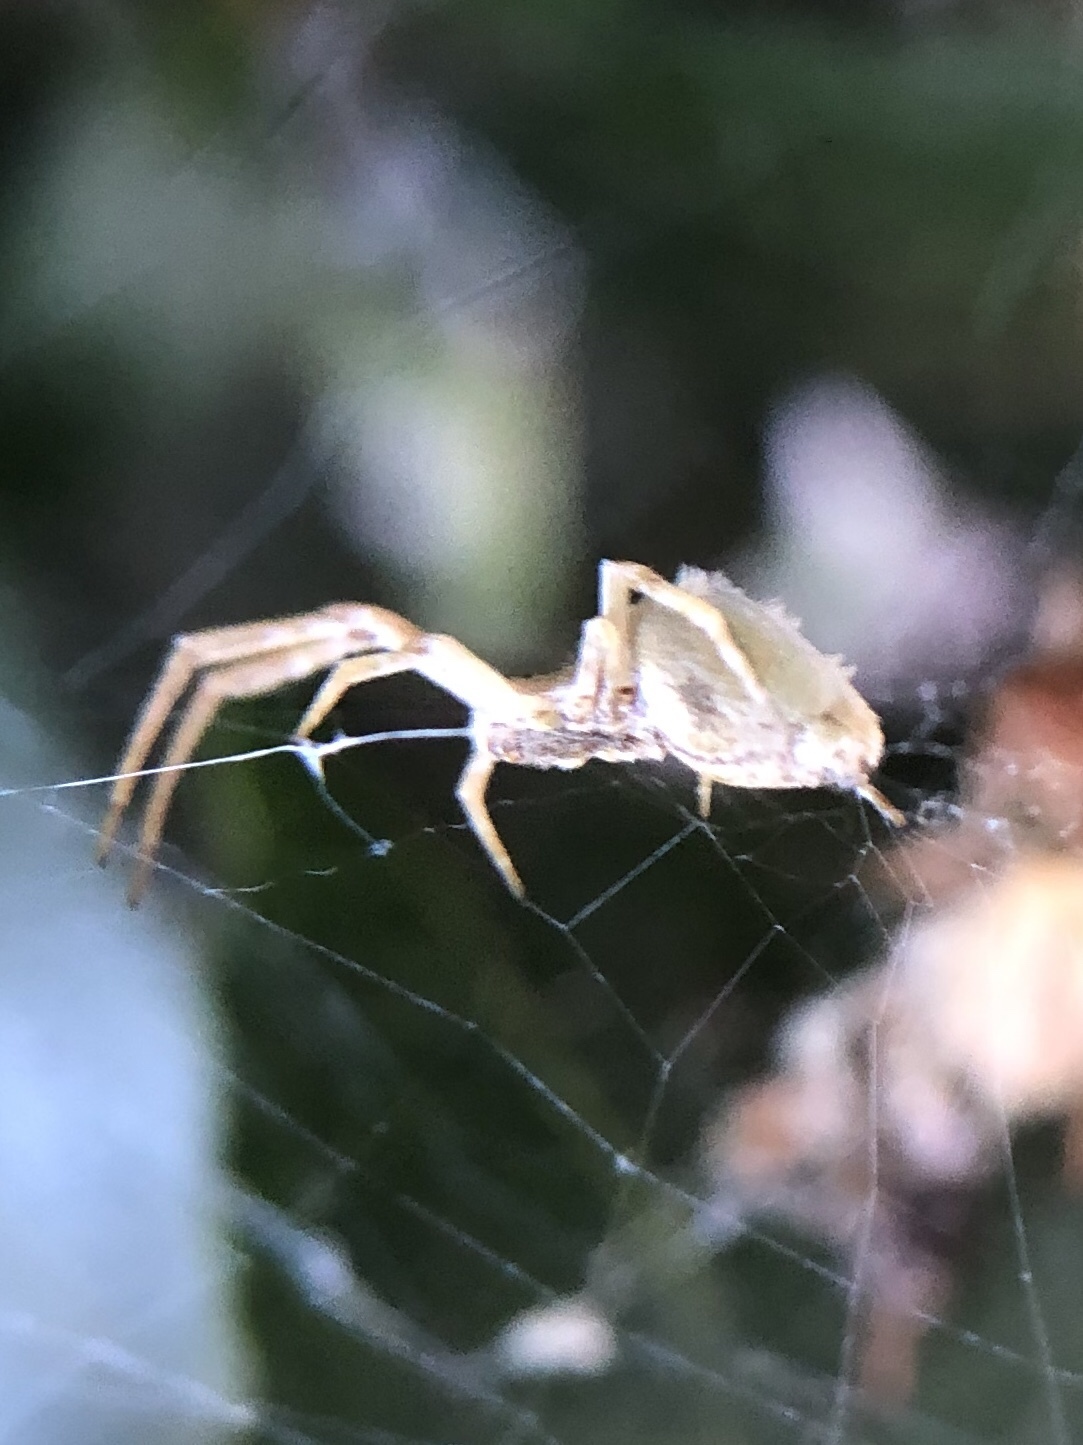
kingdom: Animalia
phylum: Arthropoda
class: Arachnida
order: Araneae
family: Uloboridae
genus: Uloborus
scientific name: Uloborus walckenaerius
